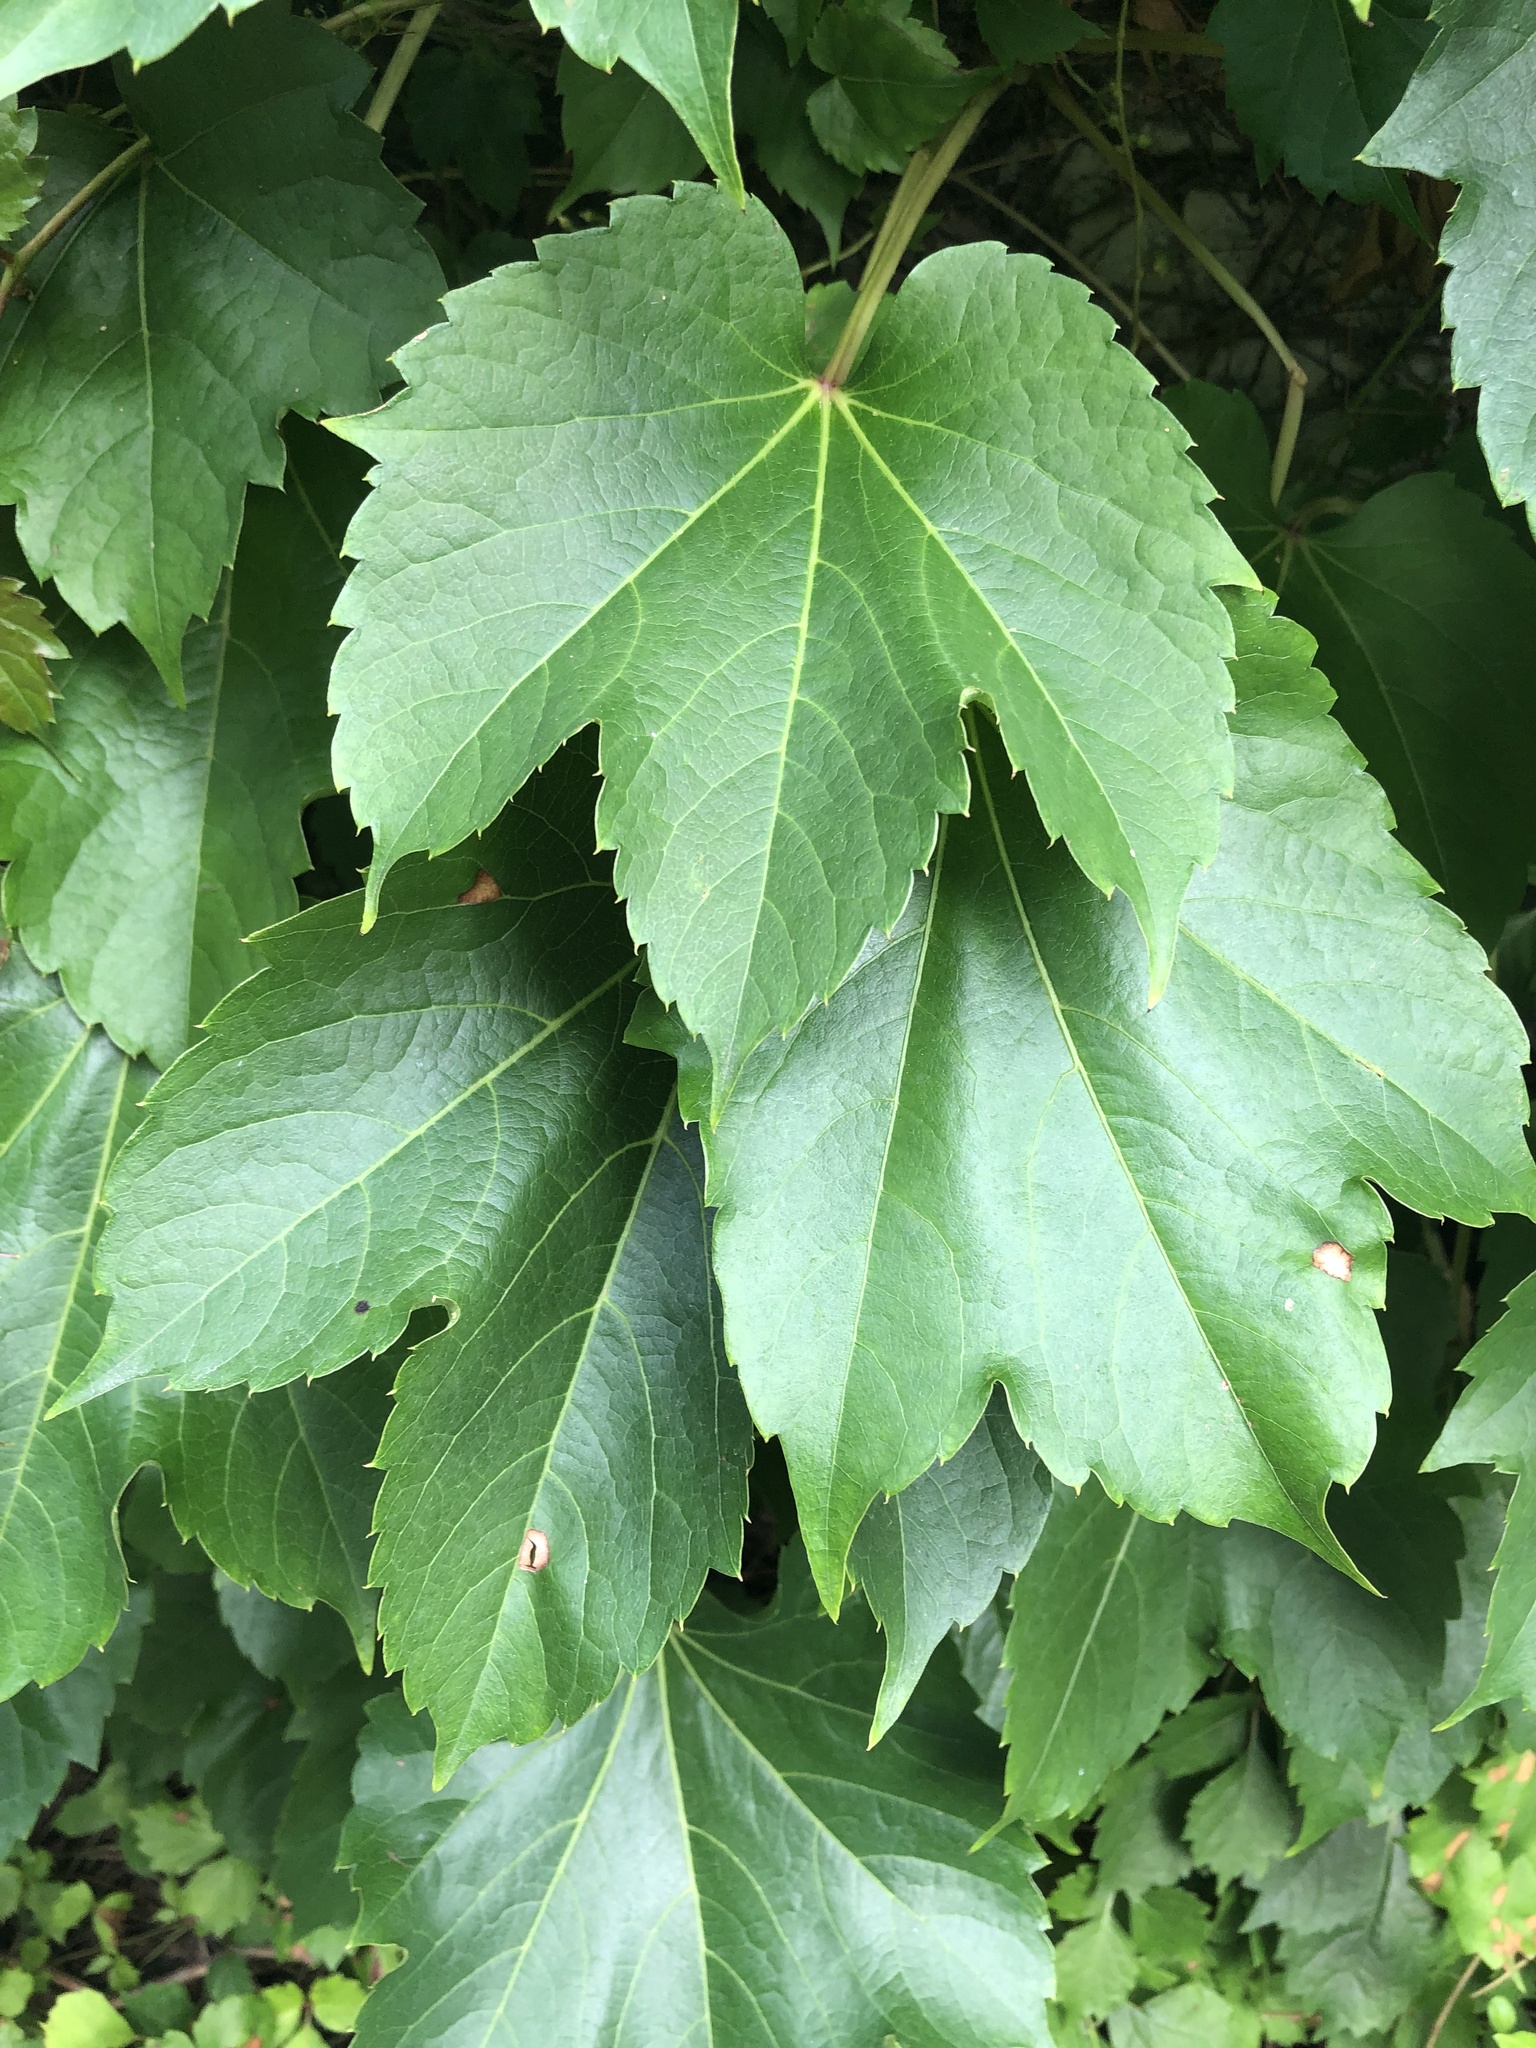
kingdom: Plantae
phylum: Tracheophyta
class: Magnoliopsida
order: Vitales
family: Vitaceae
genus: Parthenocissus
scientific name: Parthenocissus tricuspidata
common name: Boston ivy
